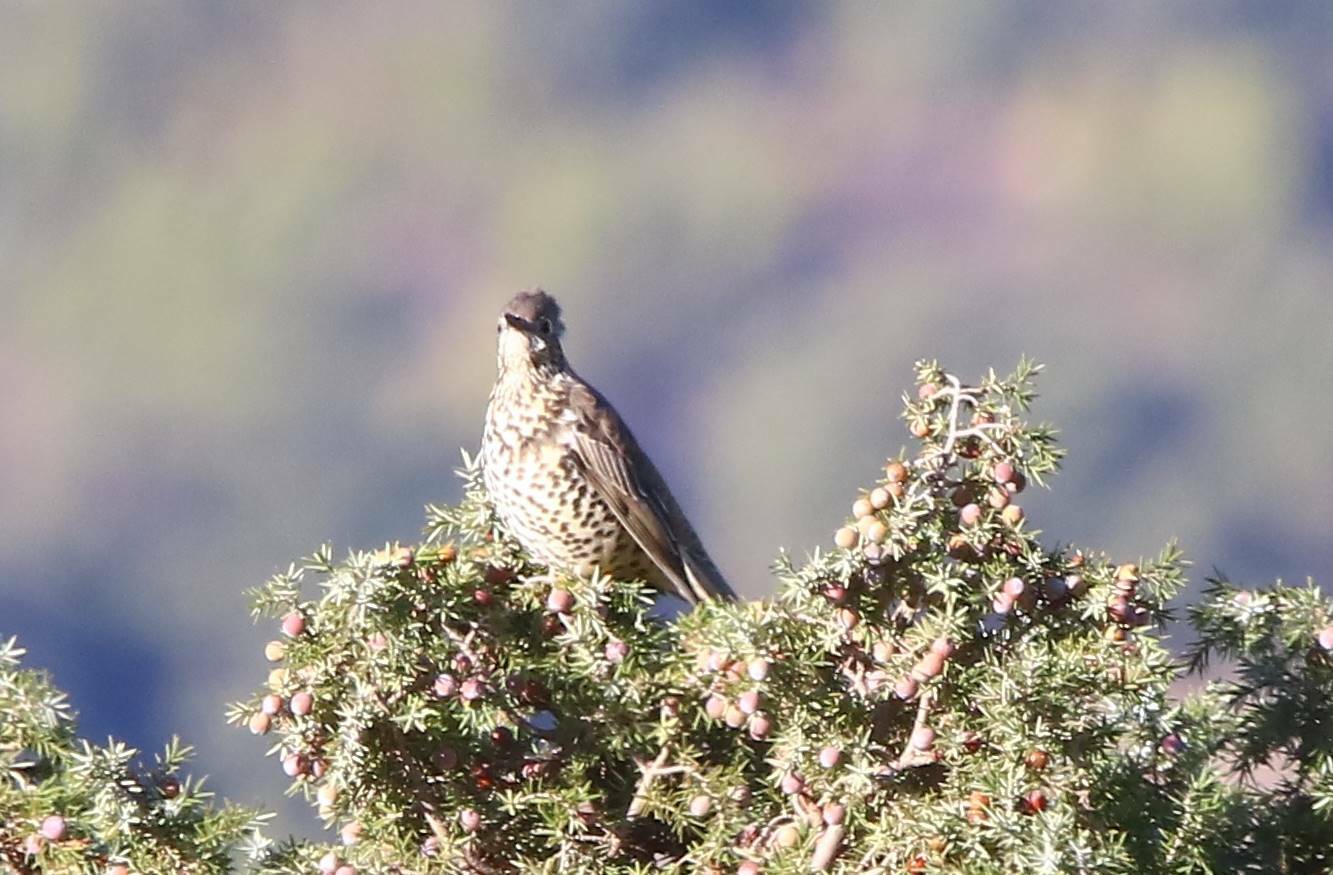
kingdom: Animalia
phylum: Chordata
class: Aves
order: Passeriformes
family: Turdidae
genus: Turdus
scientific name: Turdus viscivorus
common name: Mistle thrush
